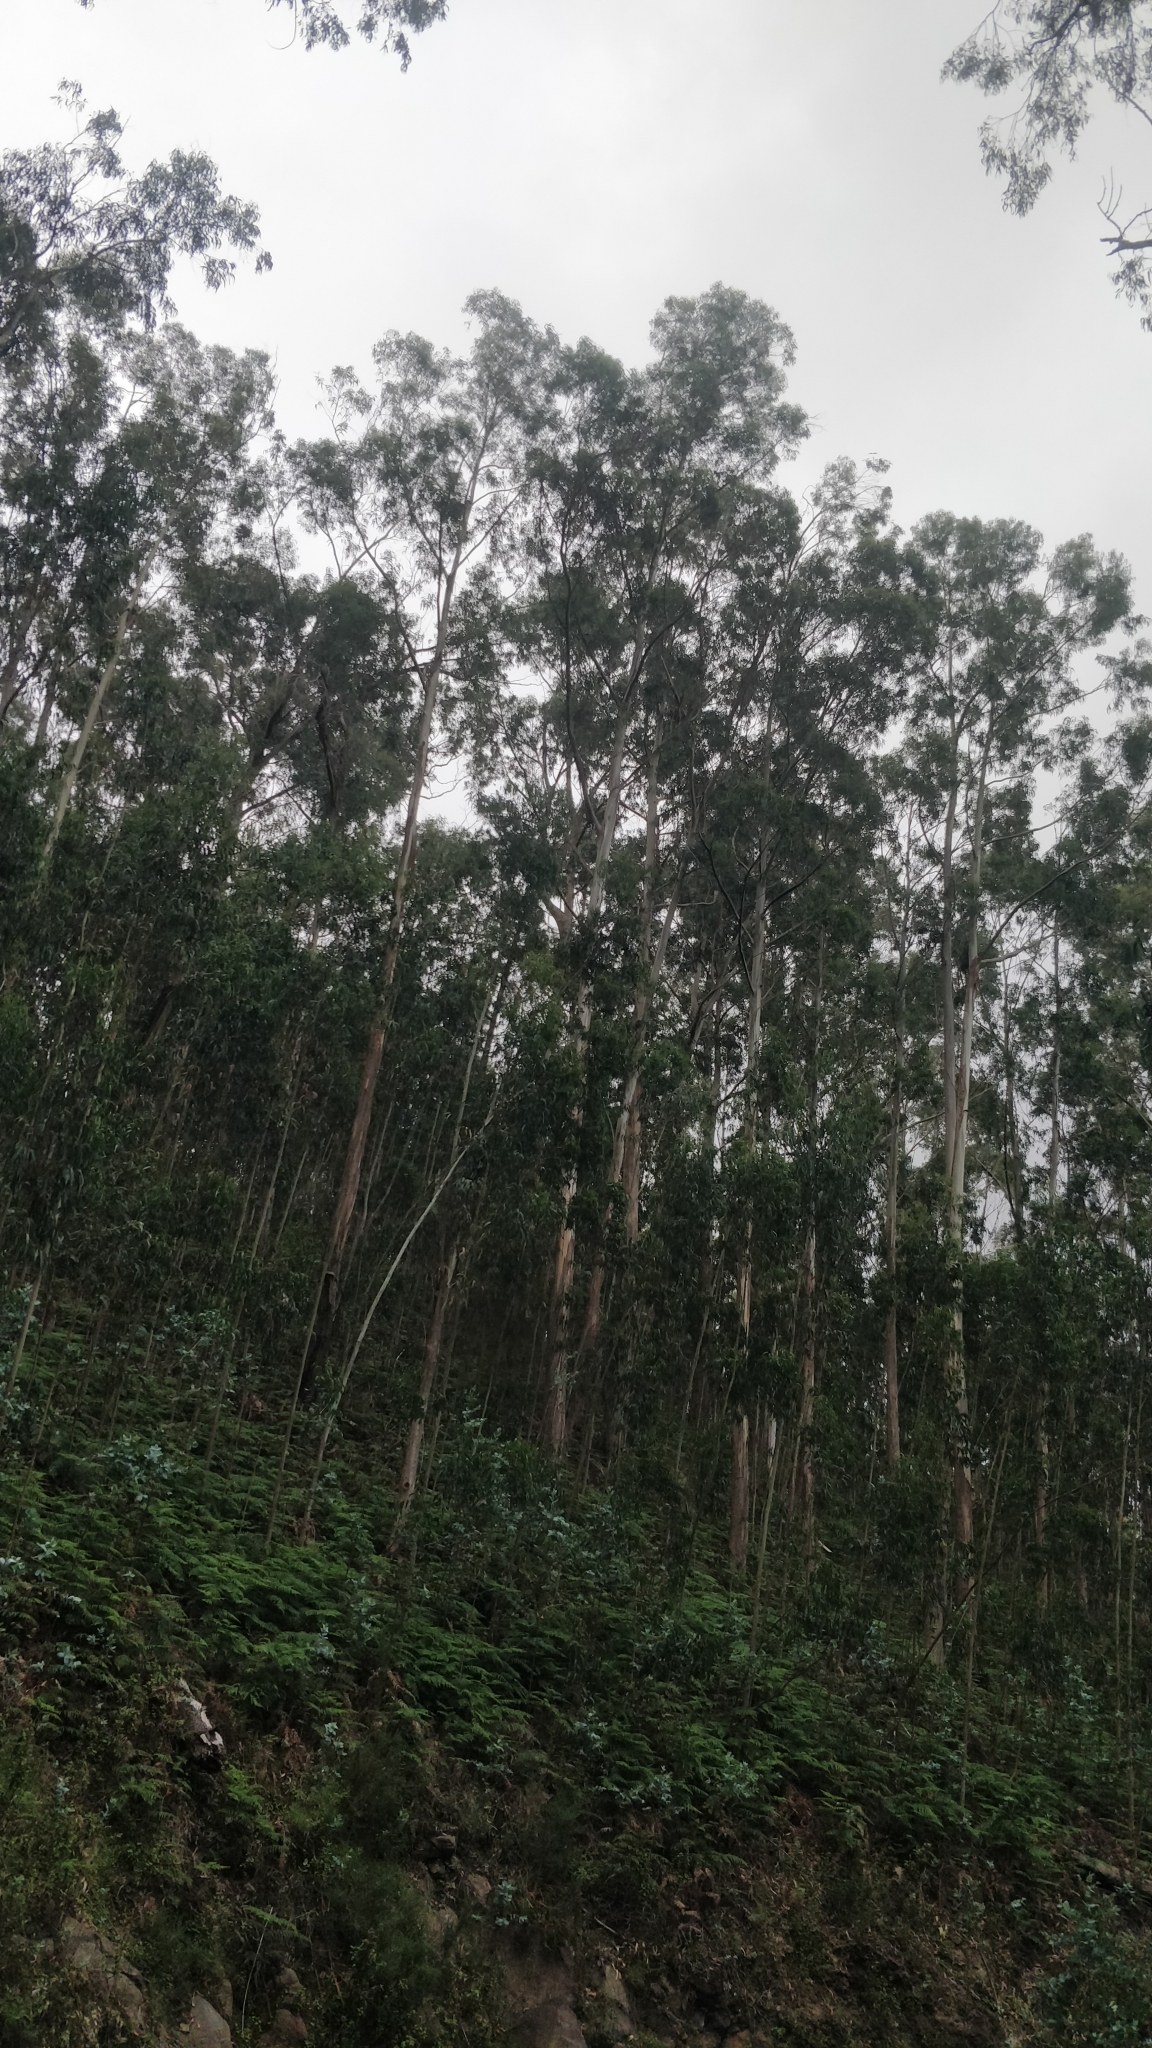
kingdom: Plantae
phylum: Tracheophyta
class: Magnoliopsida
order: Myrtales
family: Myrtaceae
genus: Eucalyptus
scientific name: Eucalyptus globulus
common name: Southern blue-gum
